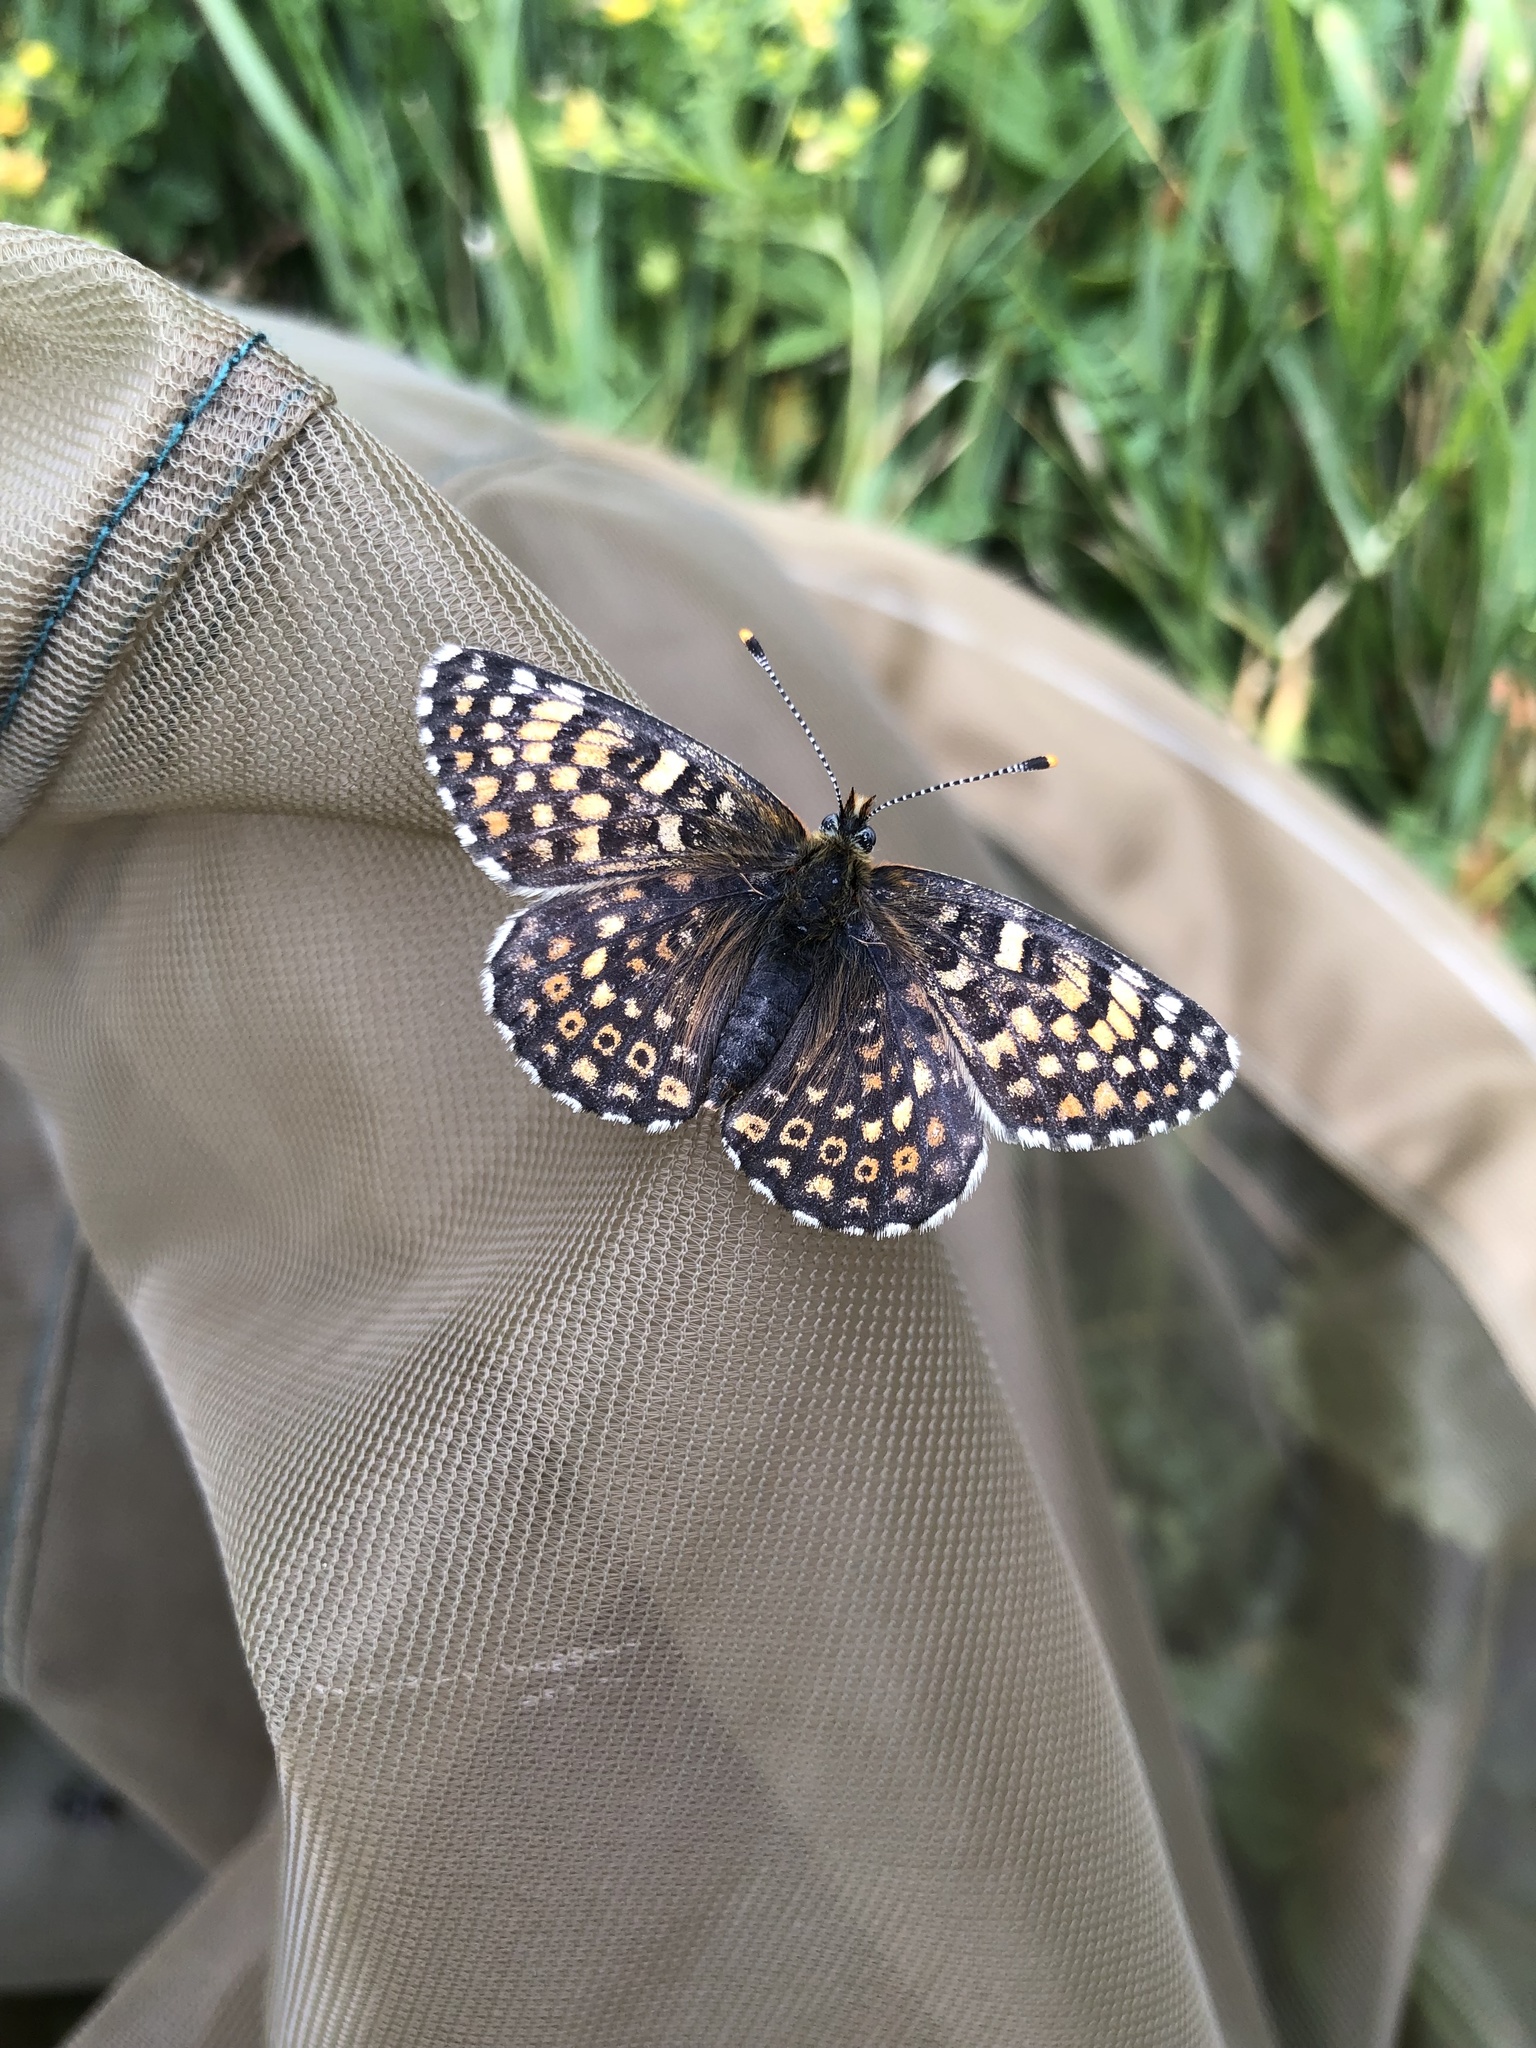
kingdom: Animalia
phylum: Arthropoda
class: Insecta
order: Lepidoptera
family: Nymphalidae
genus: Melitaea
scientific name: Melitaea cinxia
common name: Glanville fritillary
